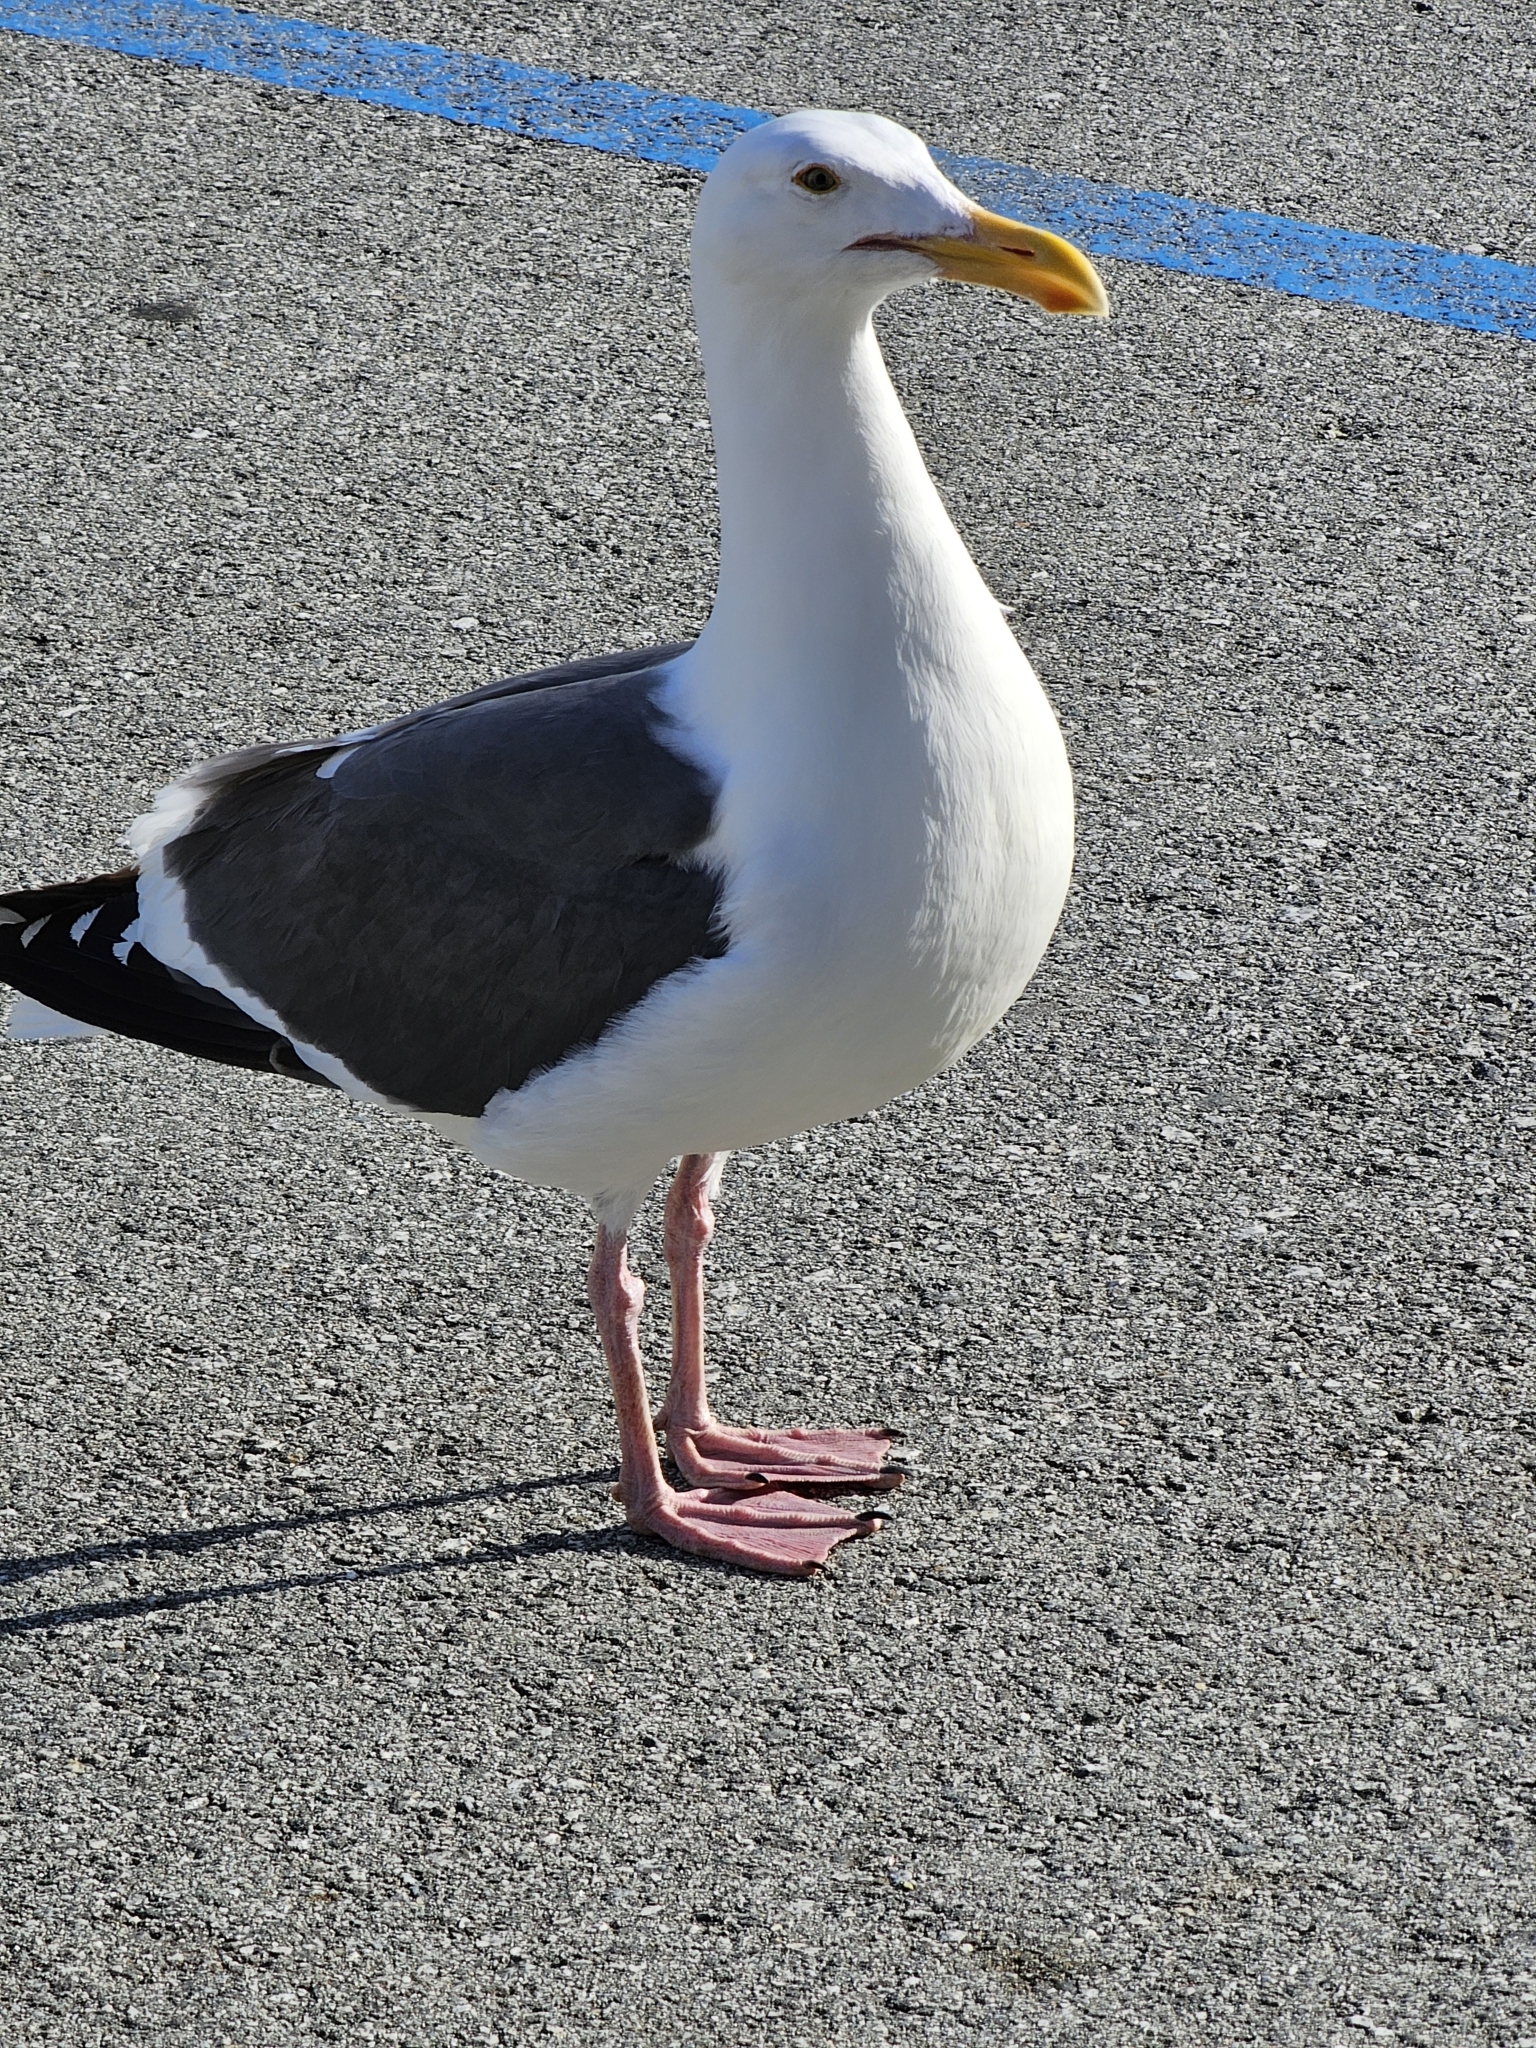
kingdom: Animalia
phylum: Chordata
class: Aves
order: Charadriiformes
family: Laridae
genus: Larus
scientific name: Larus occidentalis
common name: Western gull
